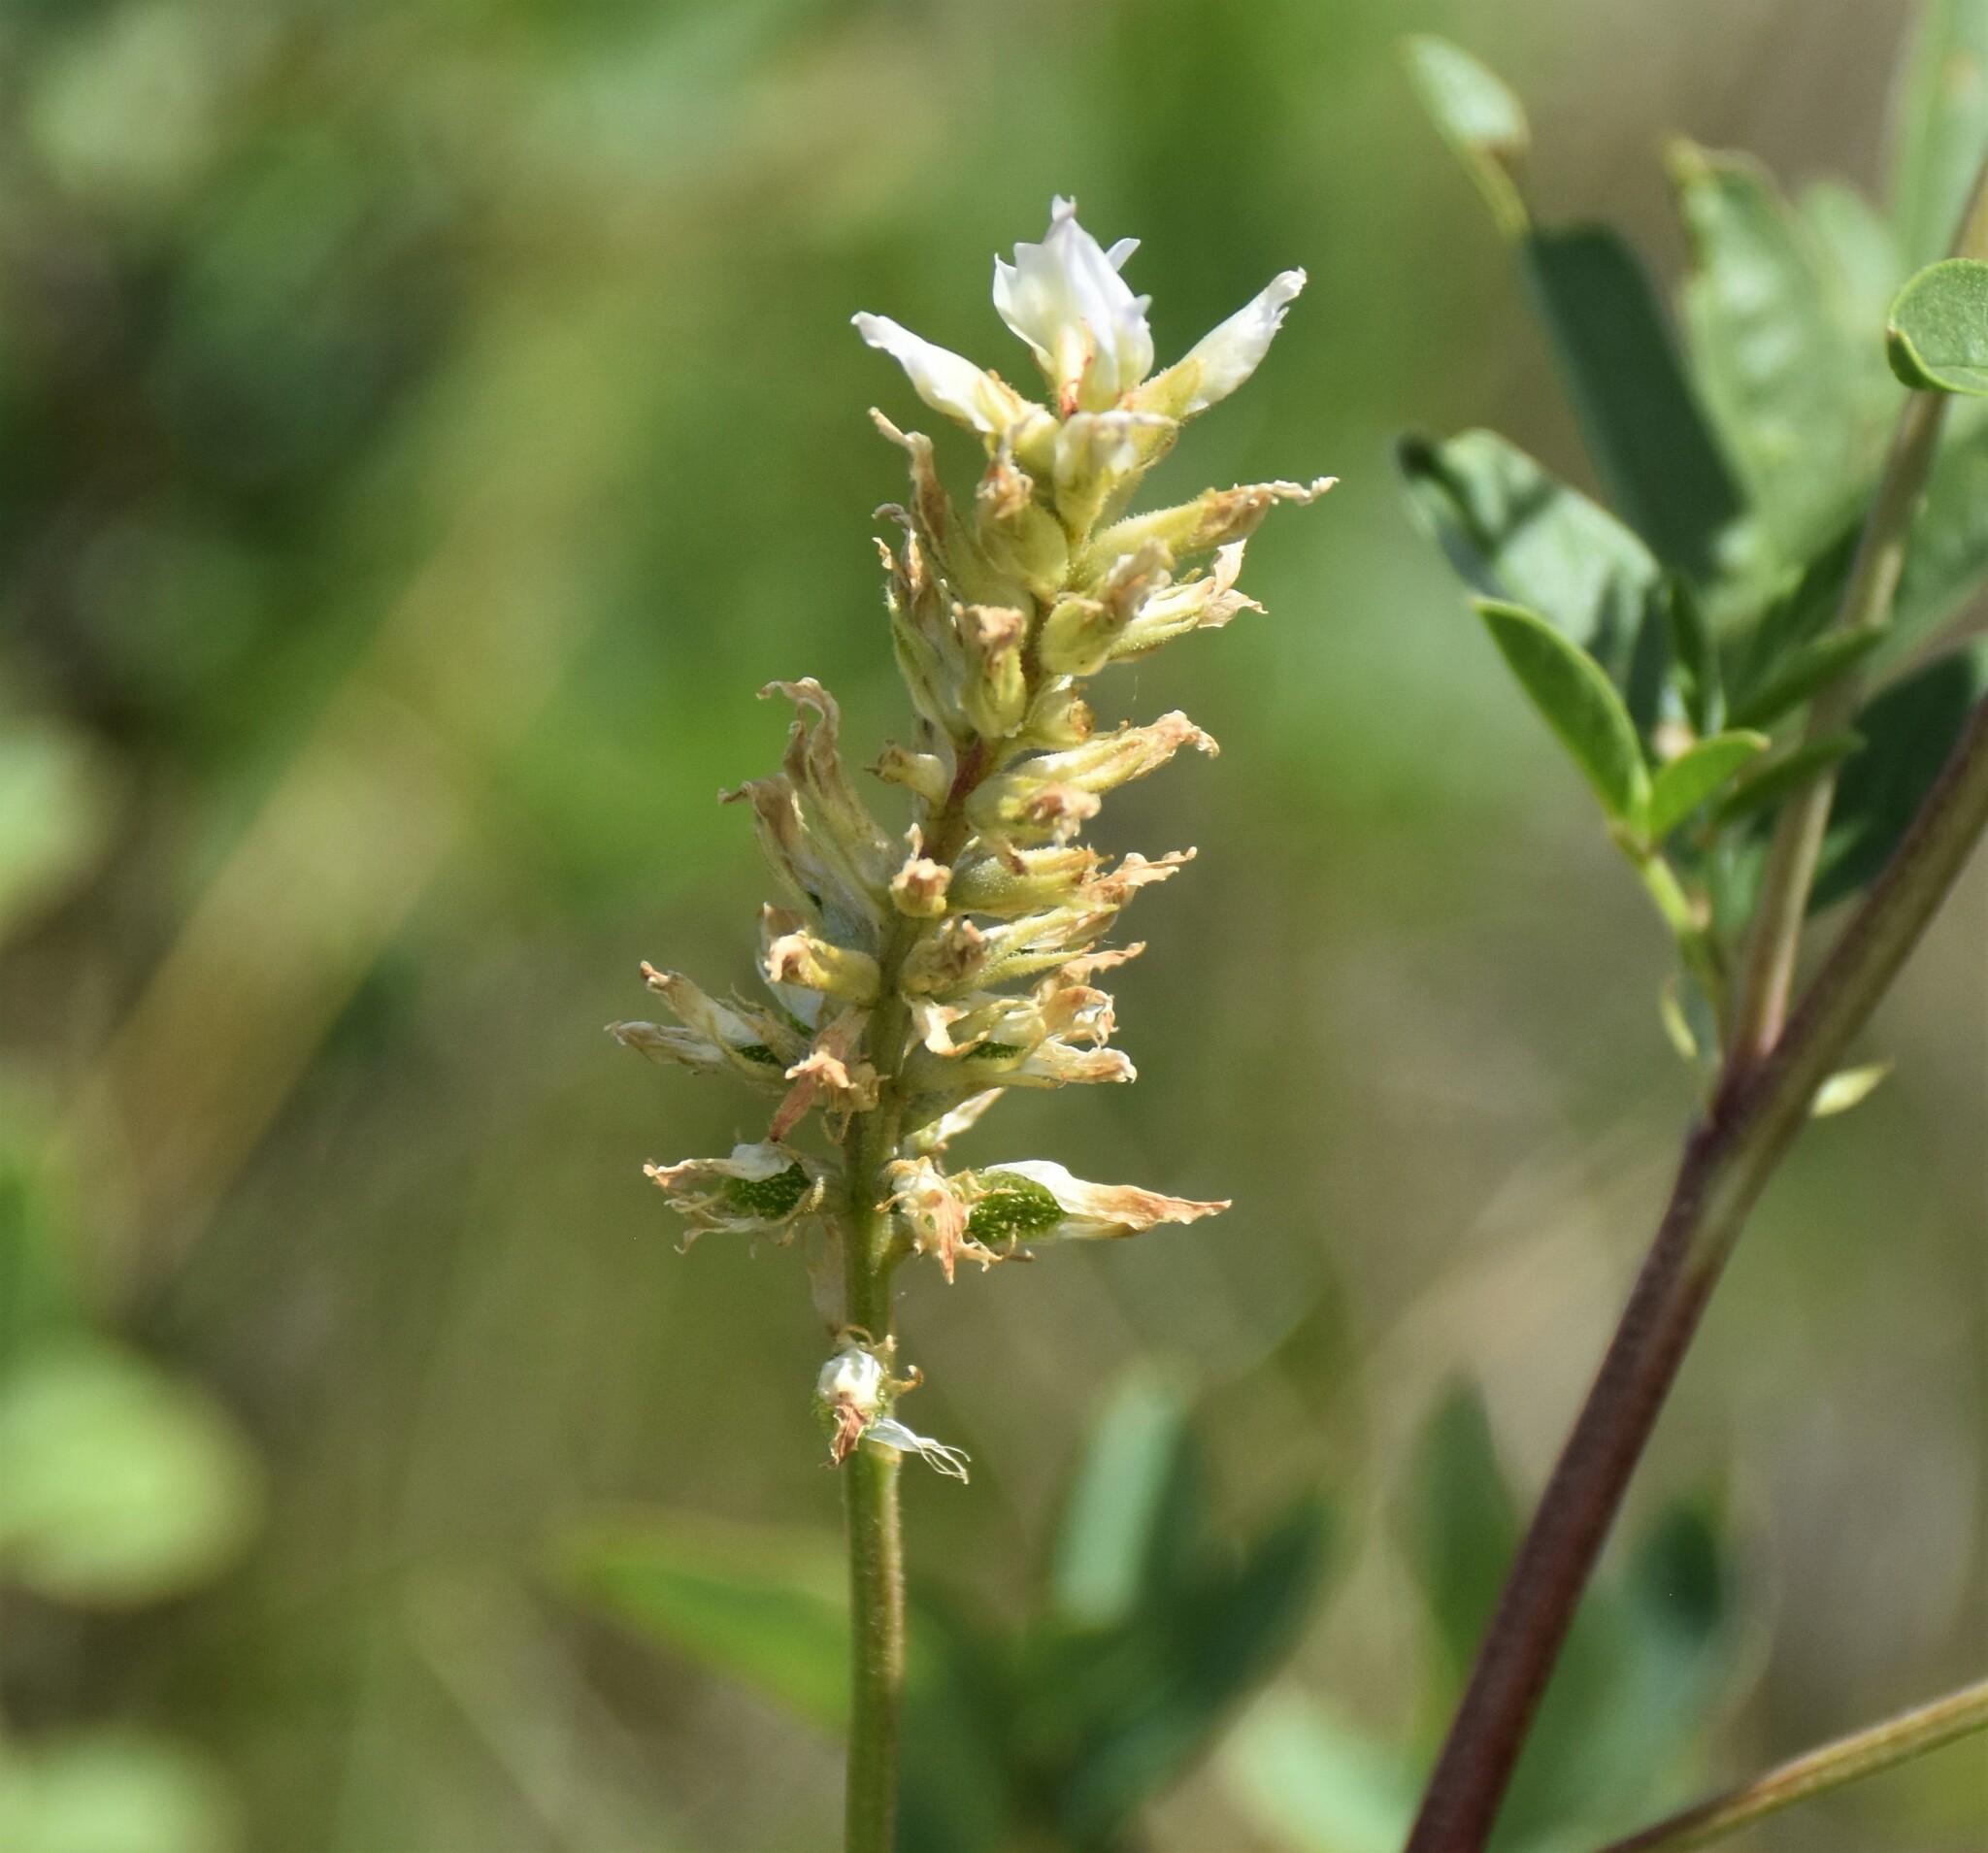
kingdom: Plantae
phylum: Tracheophyta
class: Magnoliopsida
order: Fabales
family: Fabaceae
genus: Glycyrrhiza
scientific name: Glycyrrhiza lepidota
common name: American liquorice
